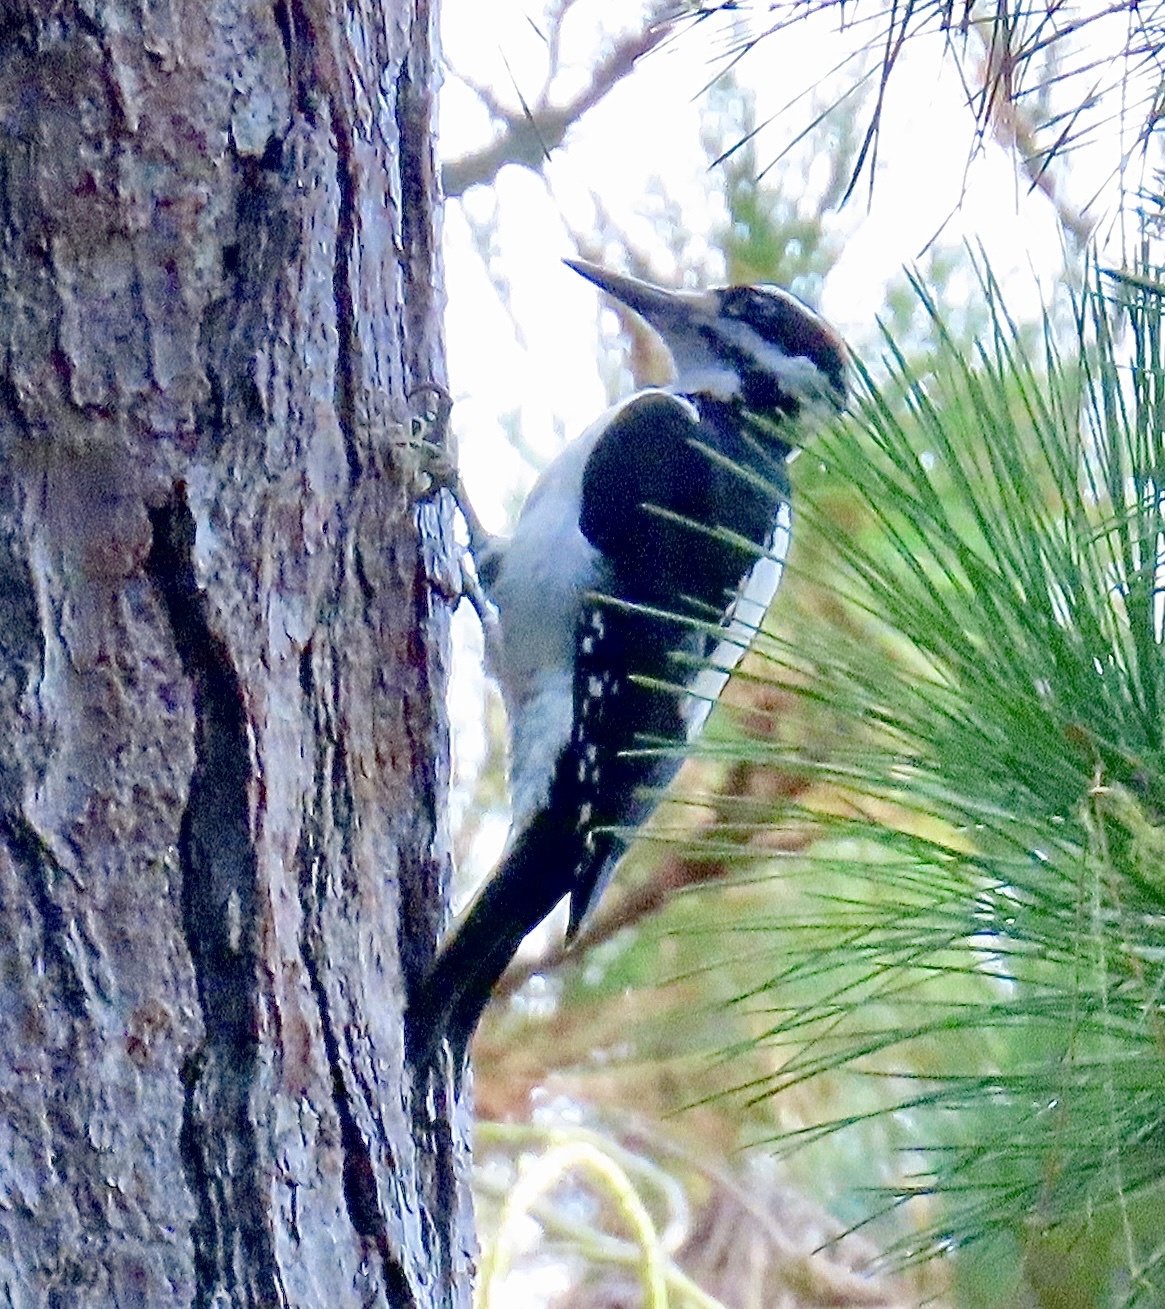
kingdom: Animalia
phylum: Chordata
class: Aves
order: Piciformes
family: Picidae
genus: Leuconotopicus
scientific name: Leuconotopicus villosus
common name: Hairy woodpecker
